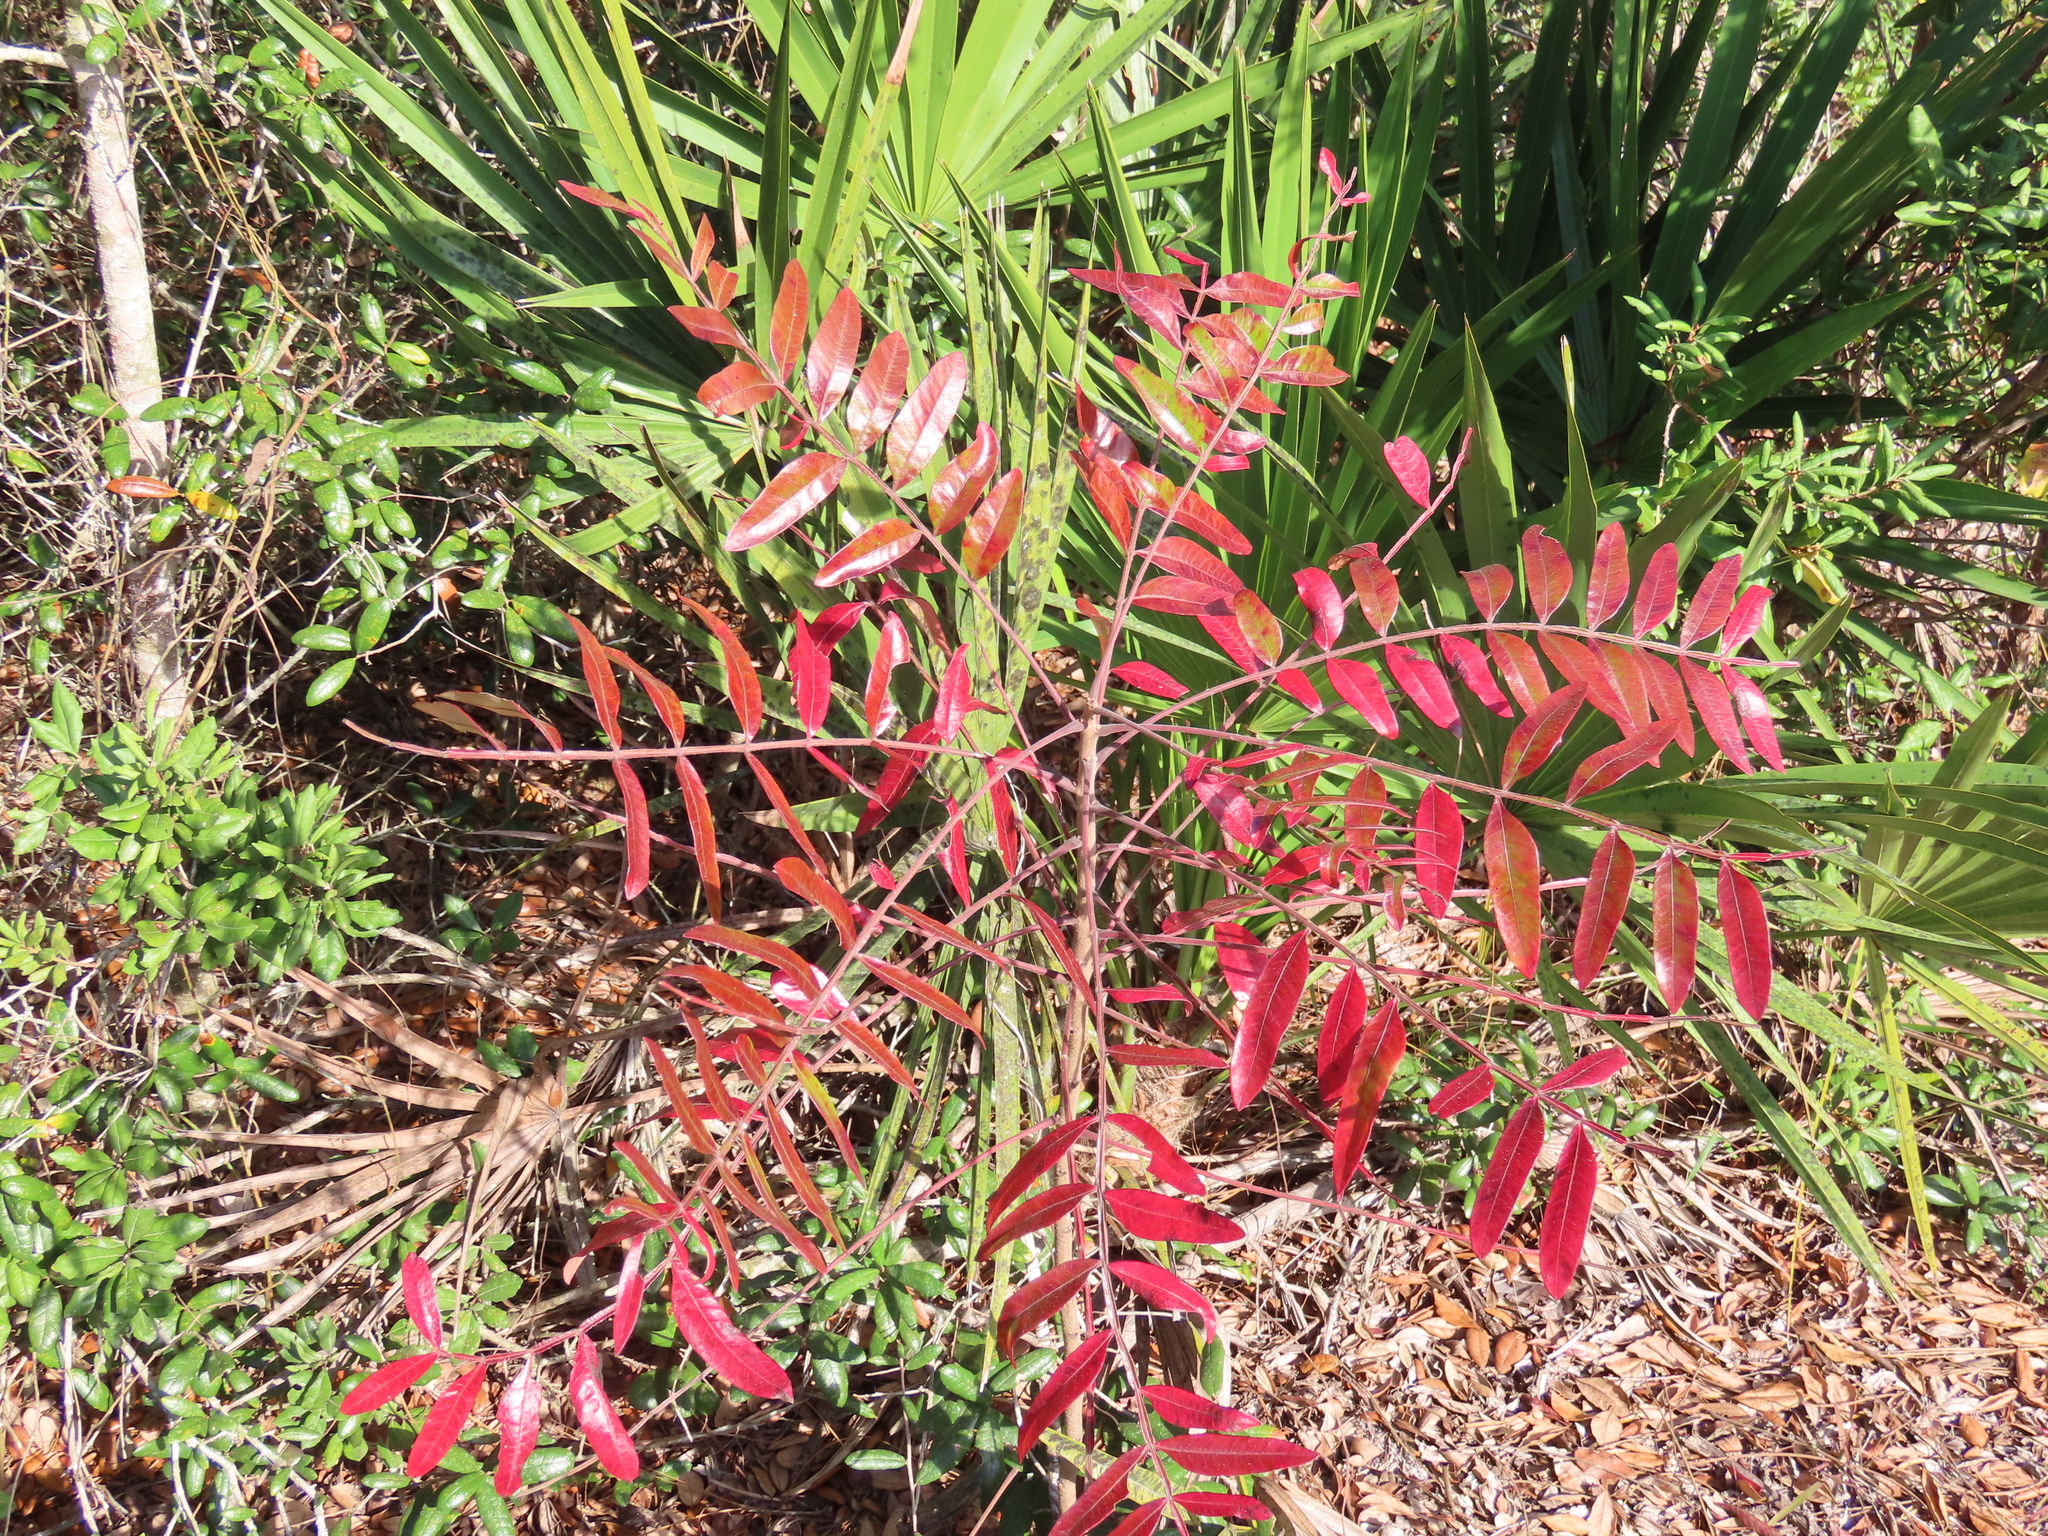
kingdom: Plantae
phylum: Tracheophyta
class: Magnoliopsida
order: Sapindales
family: Anacardiaceae
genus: Rhus
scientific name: Rhus copallina
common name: Shining sumac
